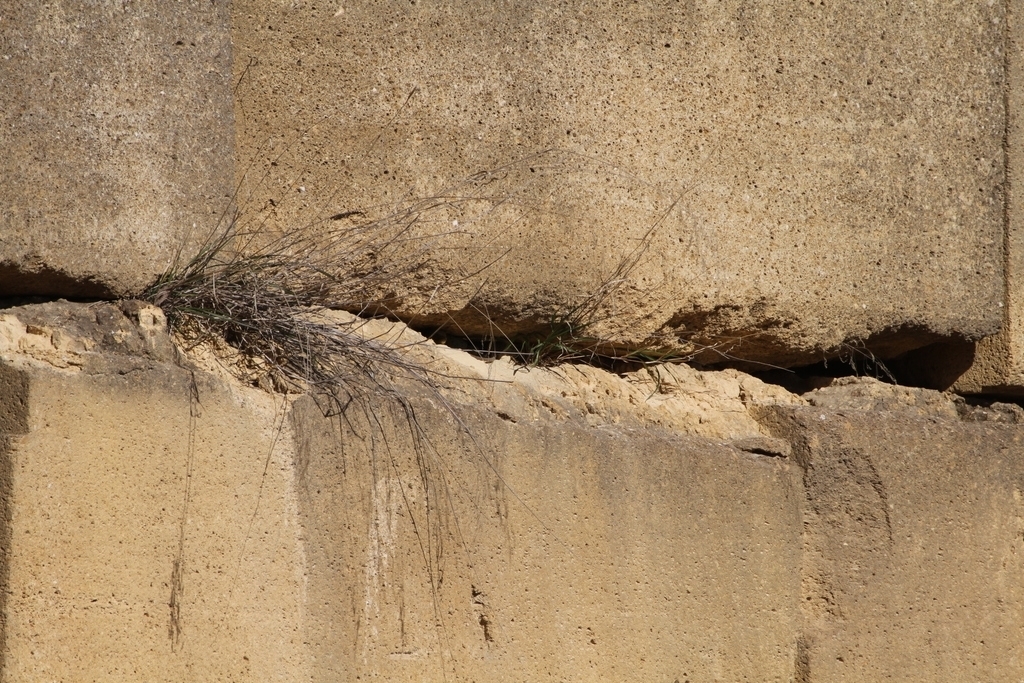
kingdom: Animalia
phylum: Chordata
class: Squamata
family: Lacertidae
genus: Timon
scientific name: Timon lepidus
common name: Ocellated lizard
